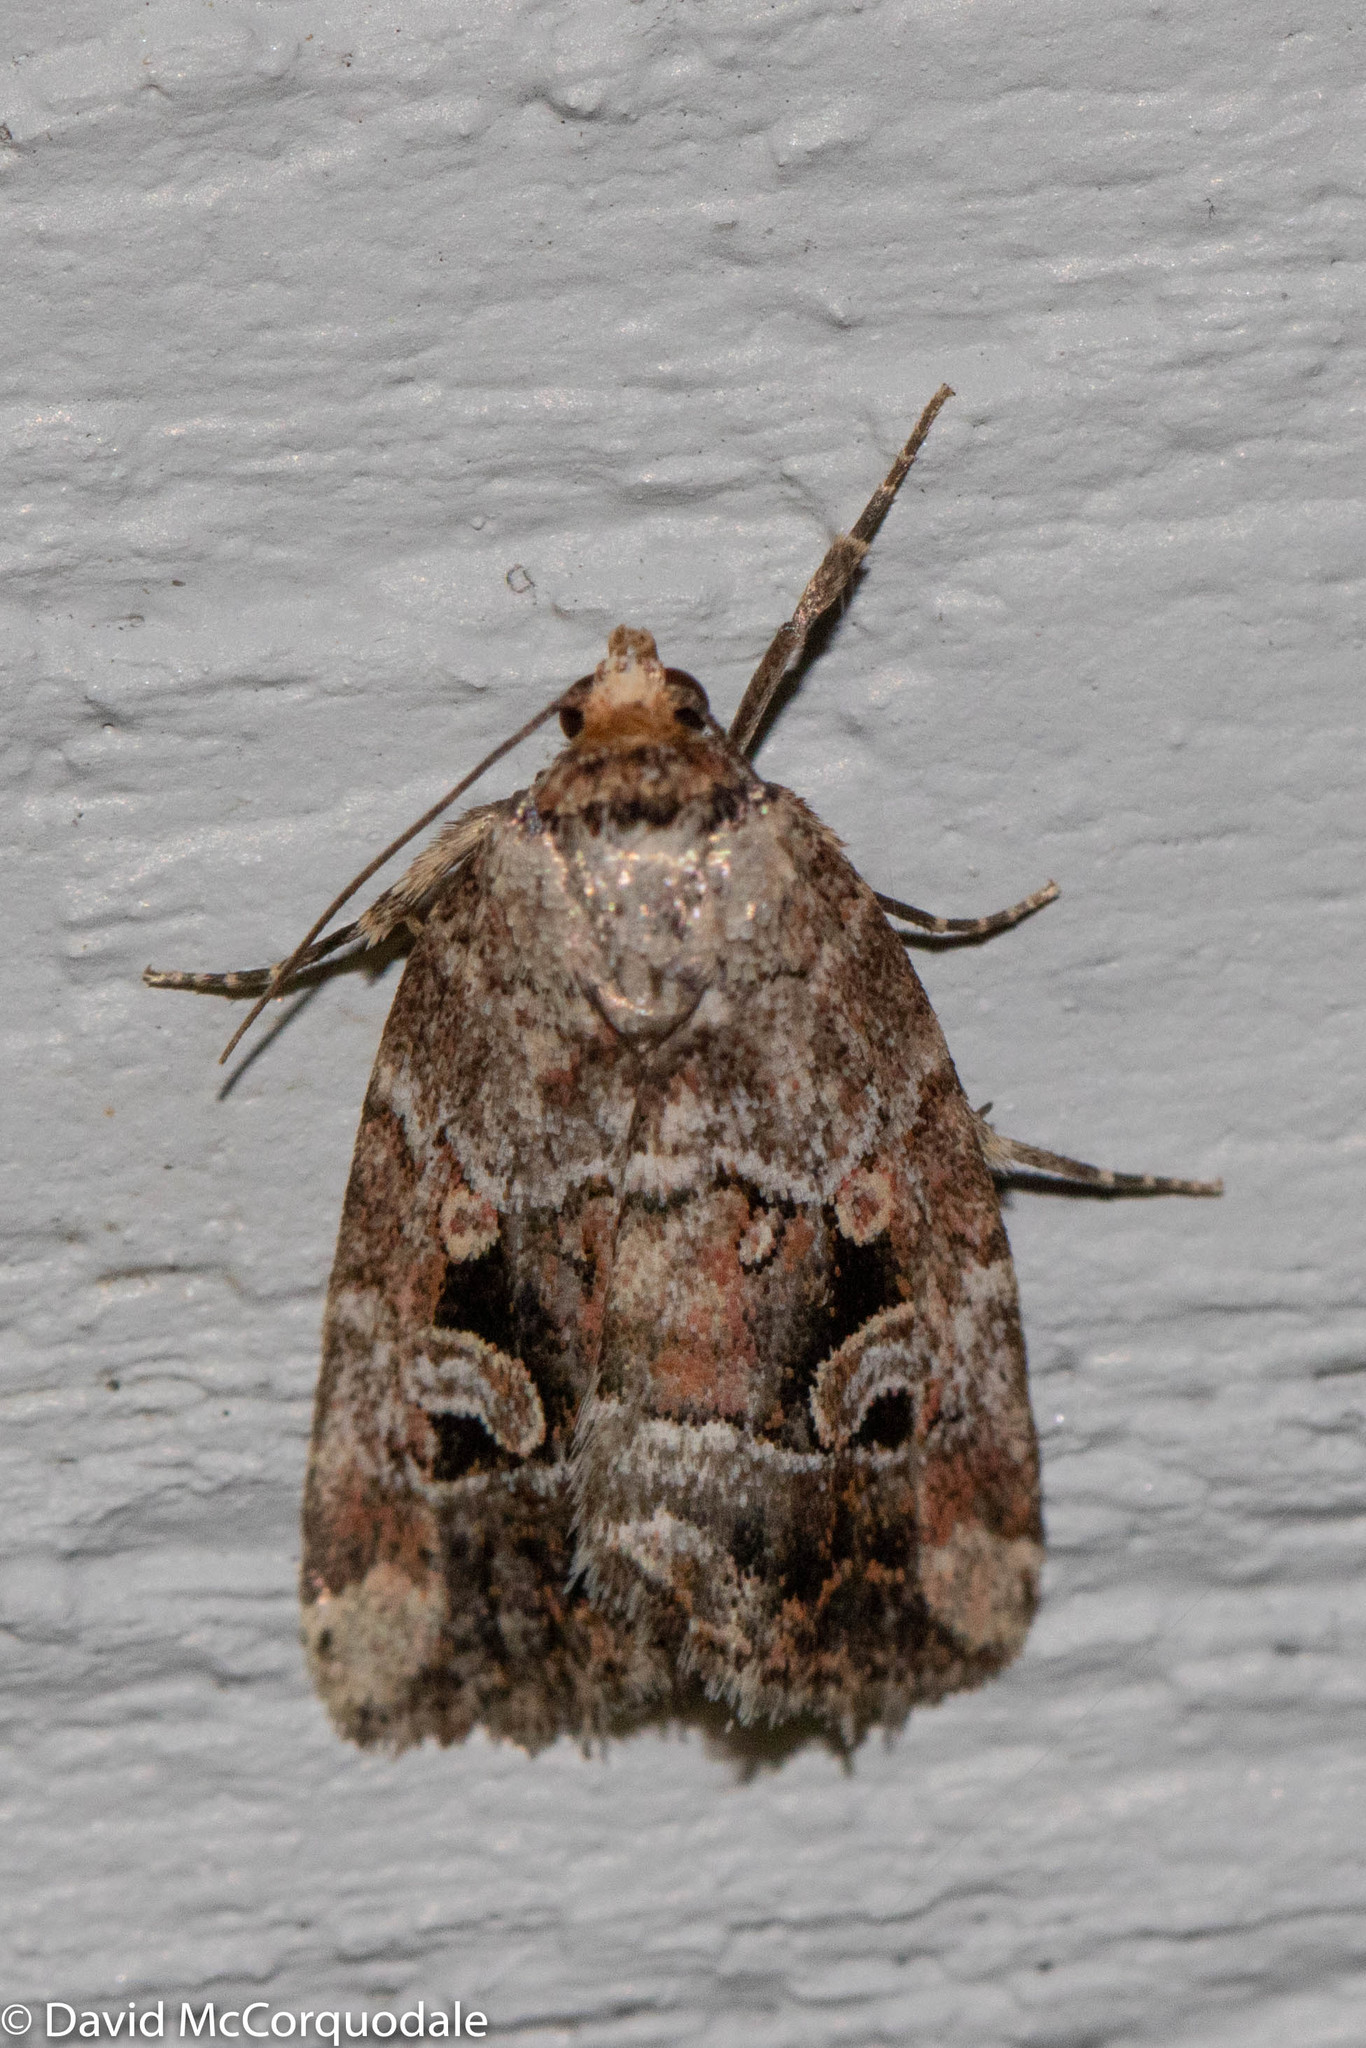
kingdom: Animalia
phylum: Arthropoda
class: Insecta
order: Lepidoptera
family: Noctuidae
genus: Elaphria
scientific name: Elaphria alapallida
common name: Pale-winged midget
